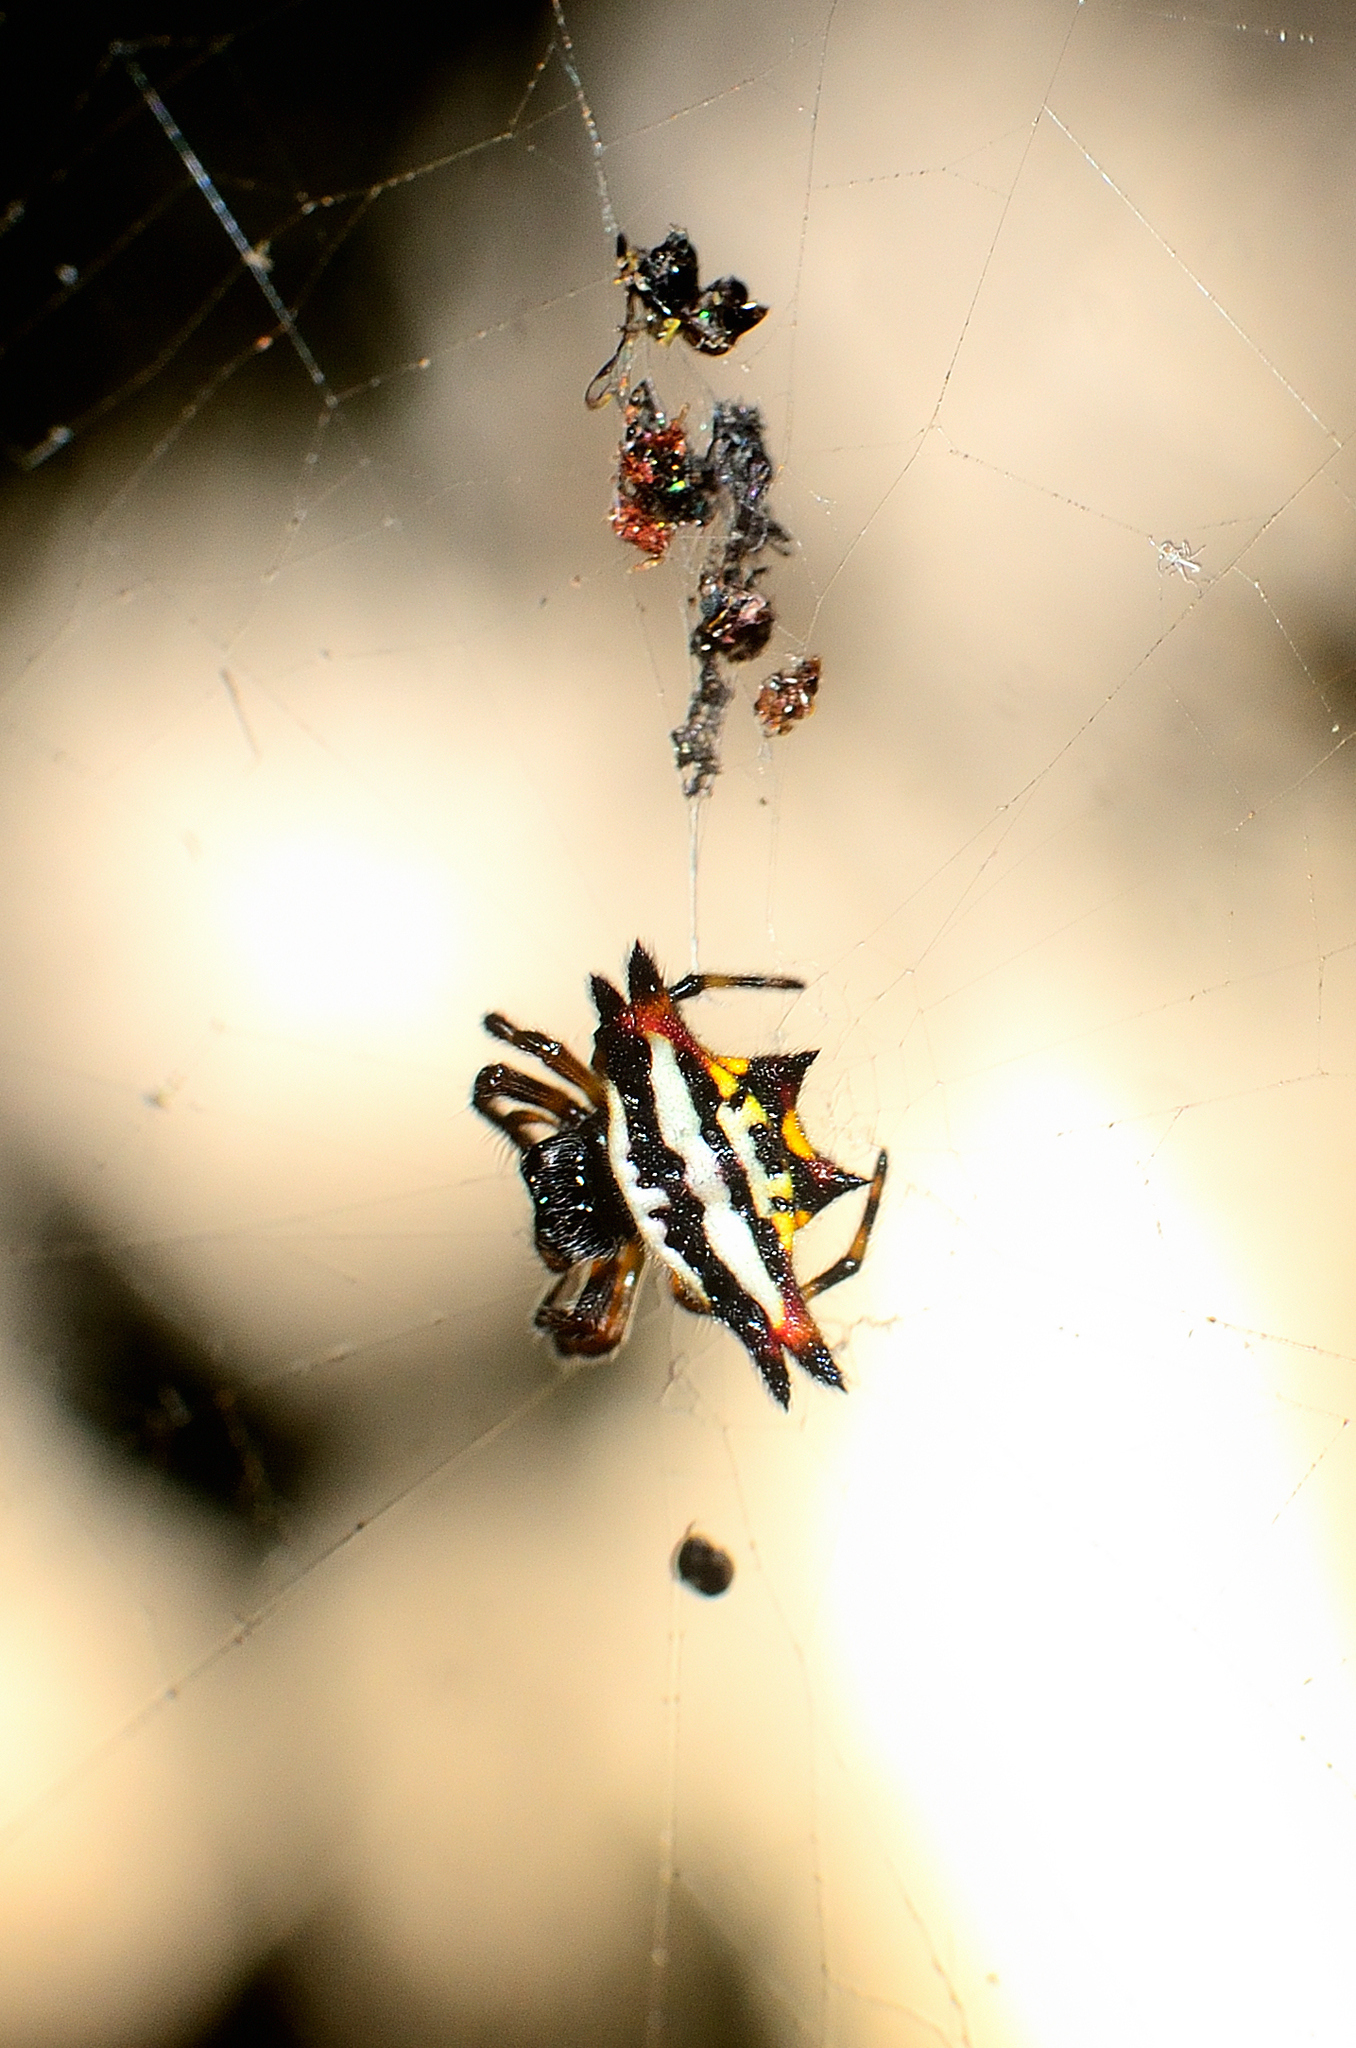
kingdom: Animalia
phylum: Arthropoda
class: Arachnida
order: Araneae
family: Araneidae
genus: Gasteracantha
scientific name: Gasteracantha geminata
